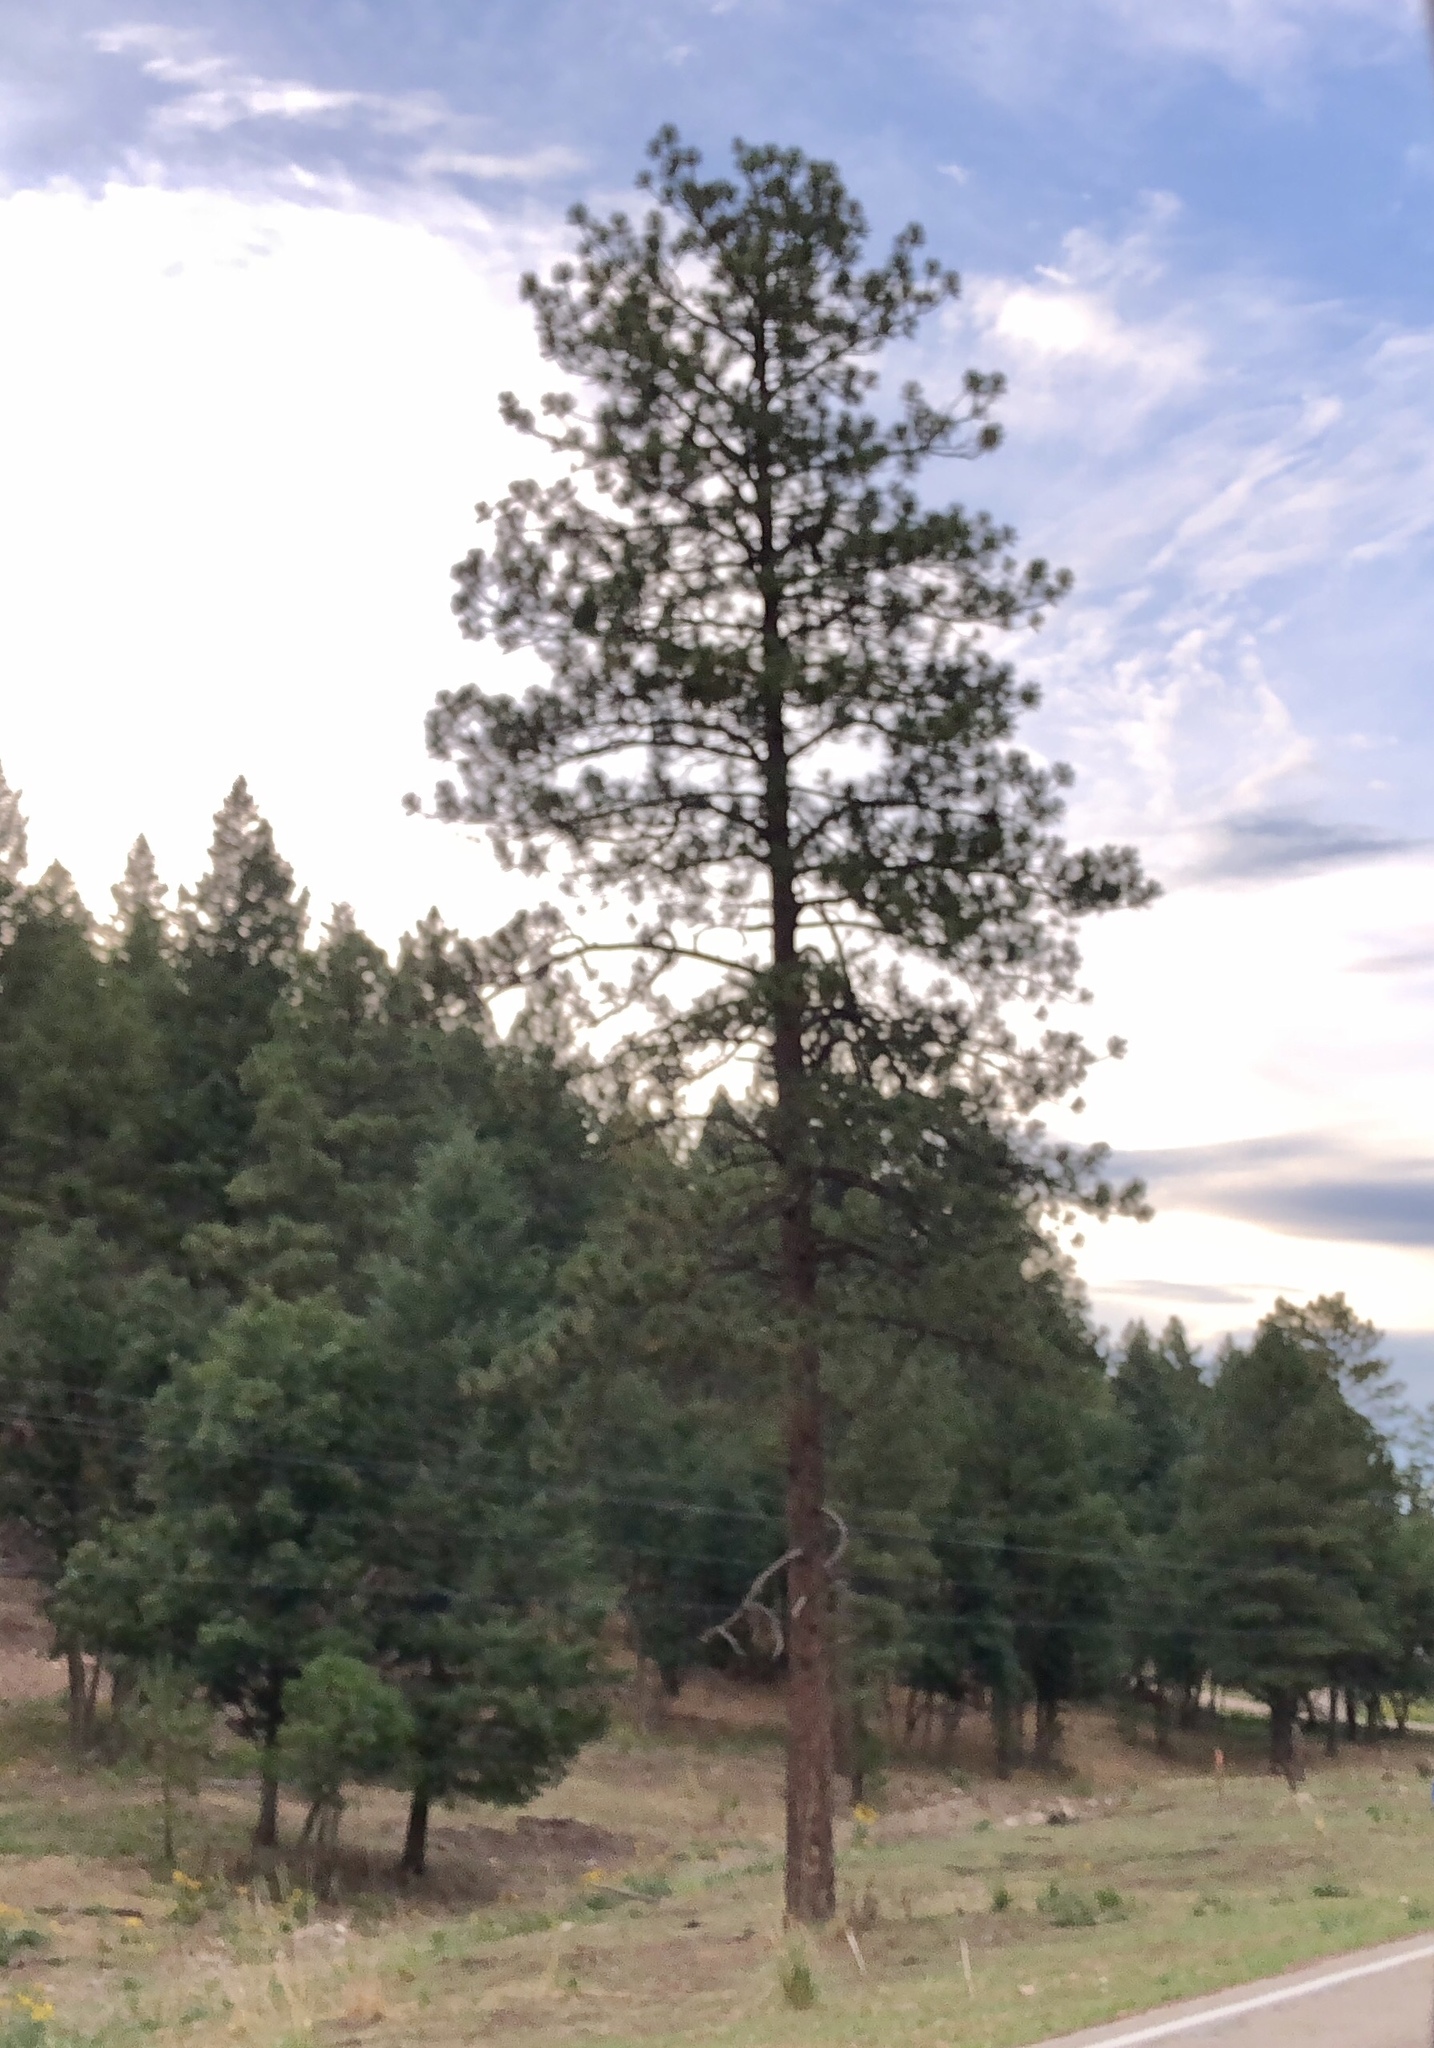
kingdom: Plantae
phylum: Tracheophyta
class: Pinopsida
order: Pinales
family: Pinaceae
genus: Pinus
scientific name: Pinus ponderosa
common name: Western yellow-pine
